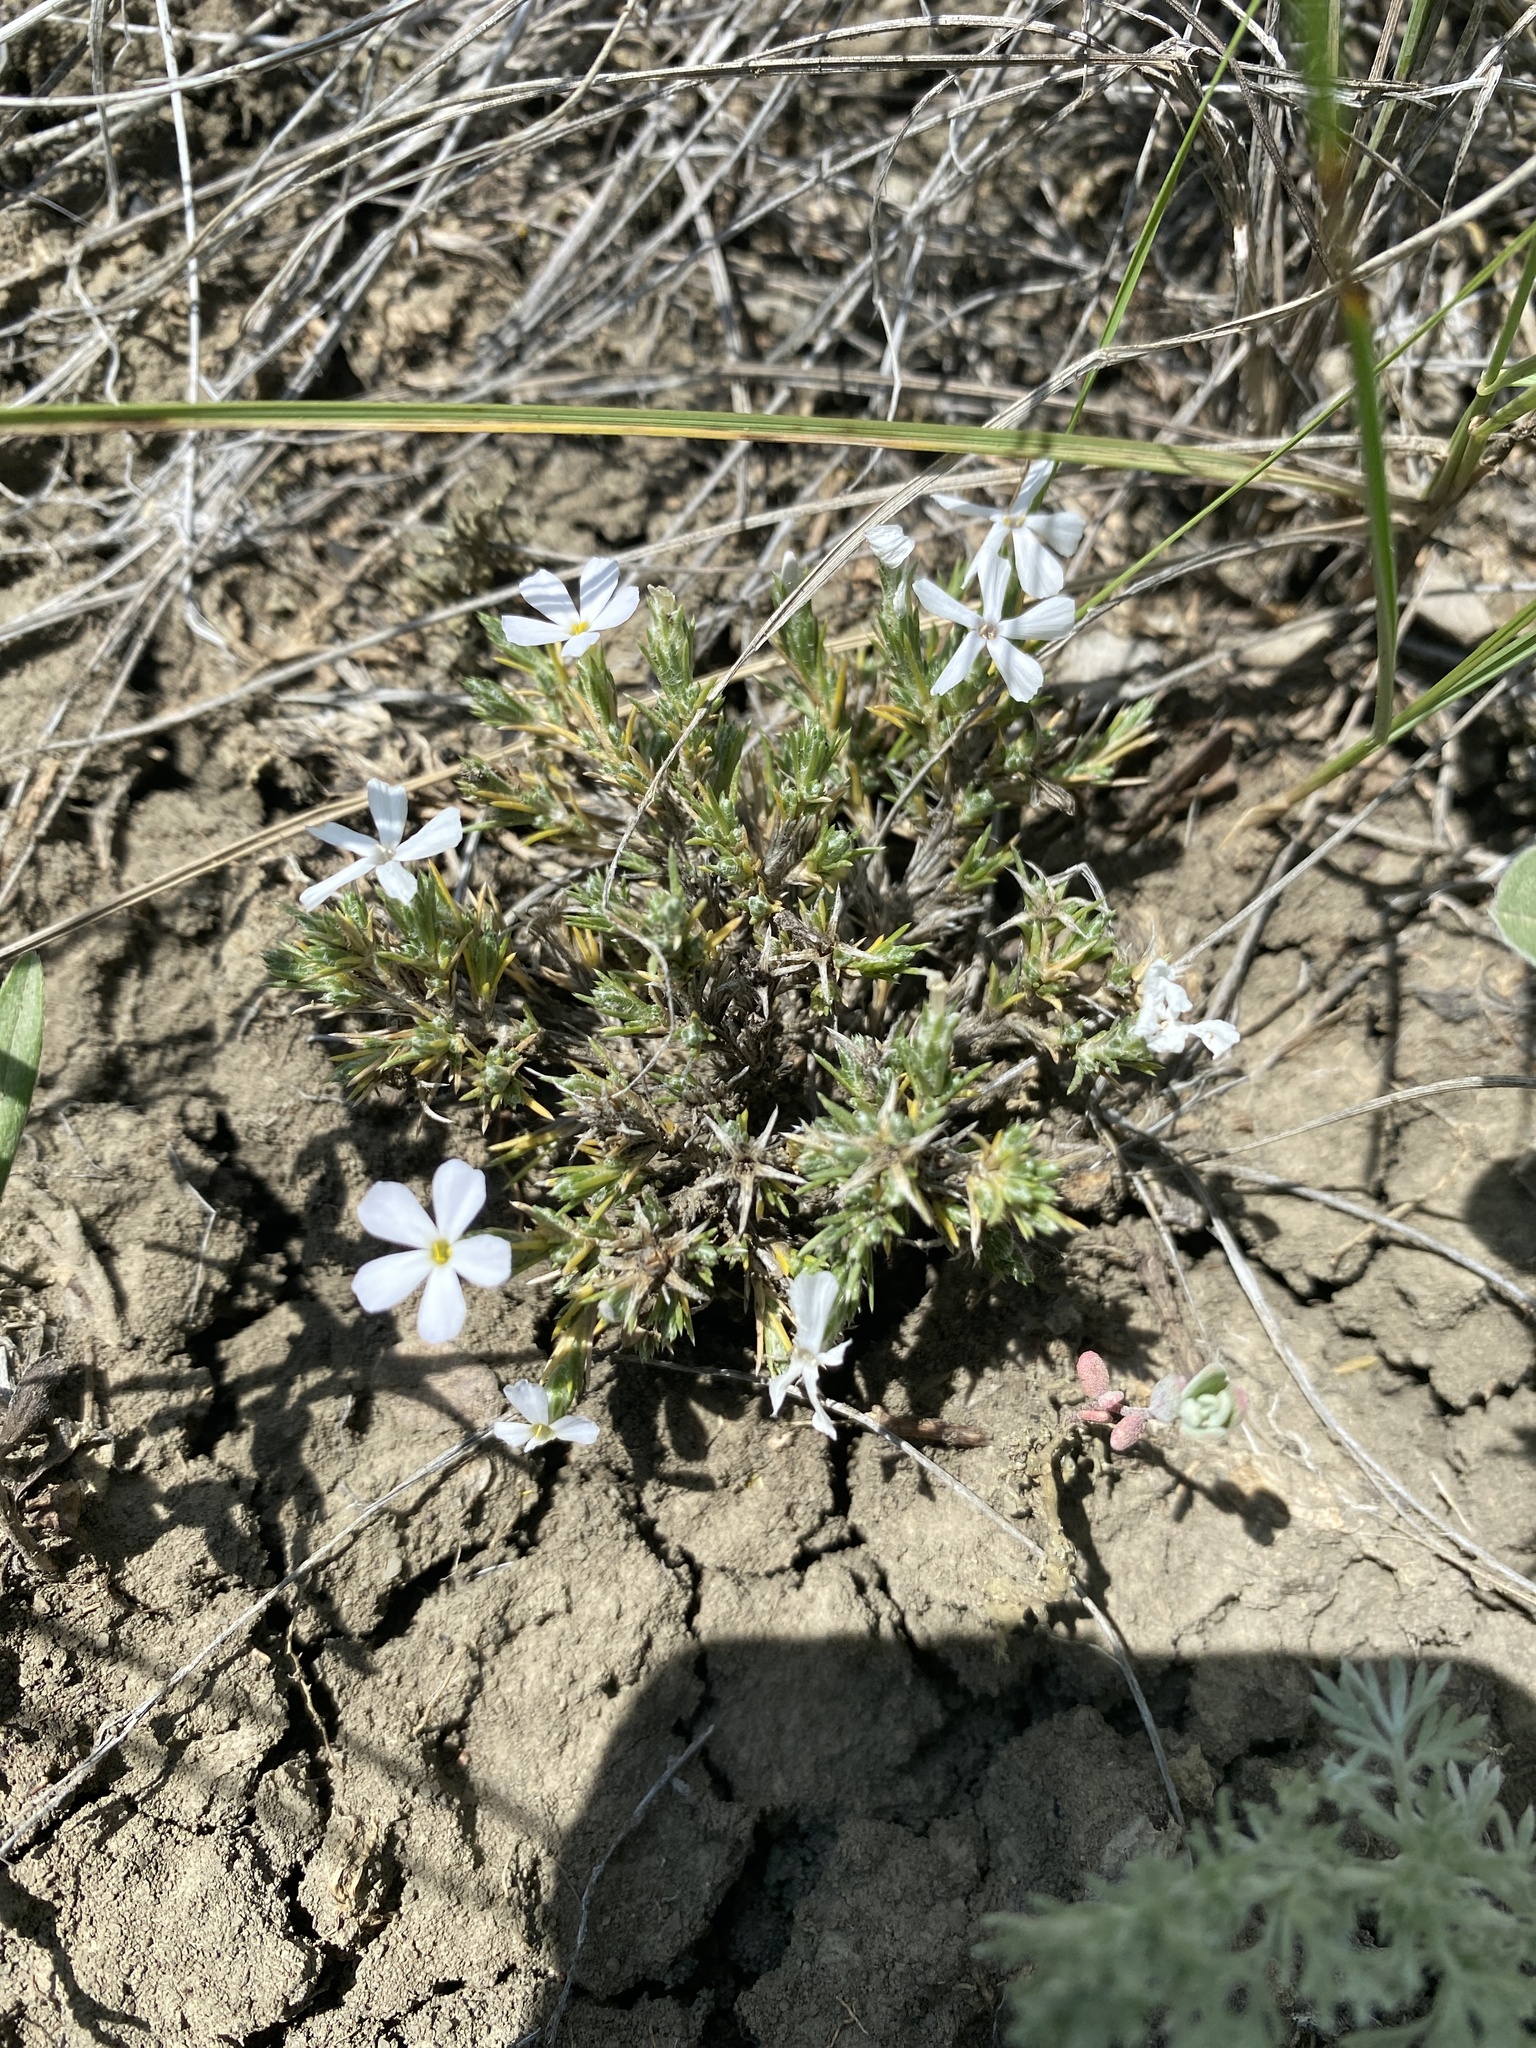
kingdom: Plantae
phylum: Tracheophyta
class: Magnoliopsida
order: Ericales
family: Polemoniaceae
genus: Phlox
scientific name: Phlox hoodii
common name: Moss phlox
